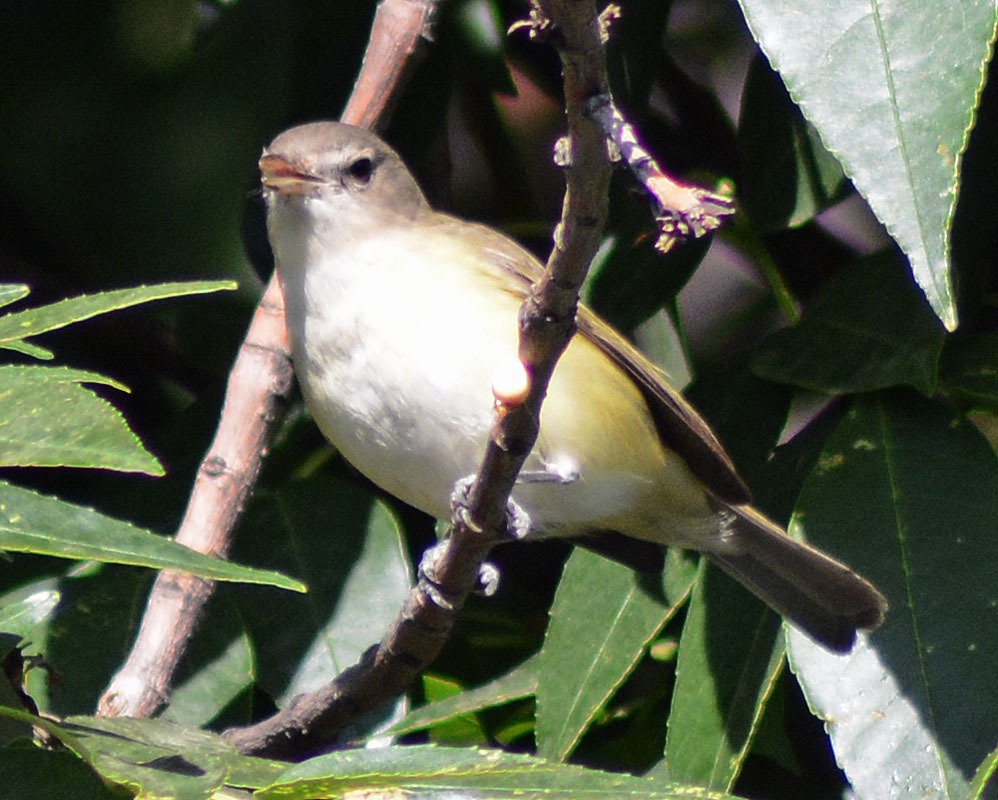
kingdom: Animalia
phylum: Chordata
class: Aves
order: Passeriformes
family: Vireonidae
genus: Vireo
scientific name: Vireo gilvus
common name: Warbling vireo
